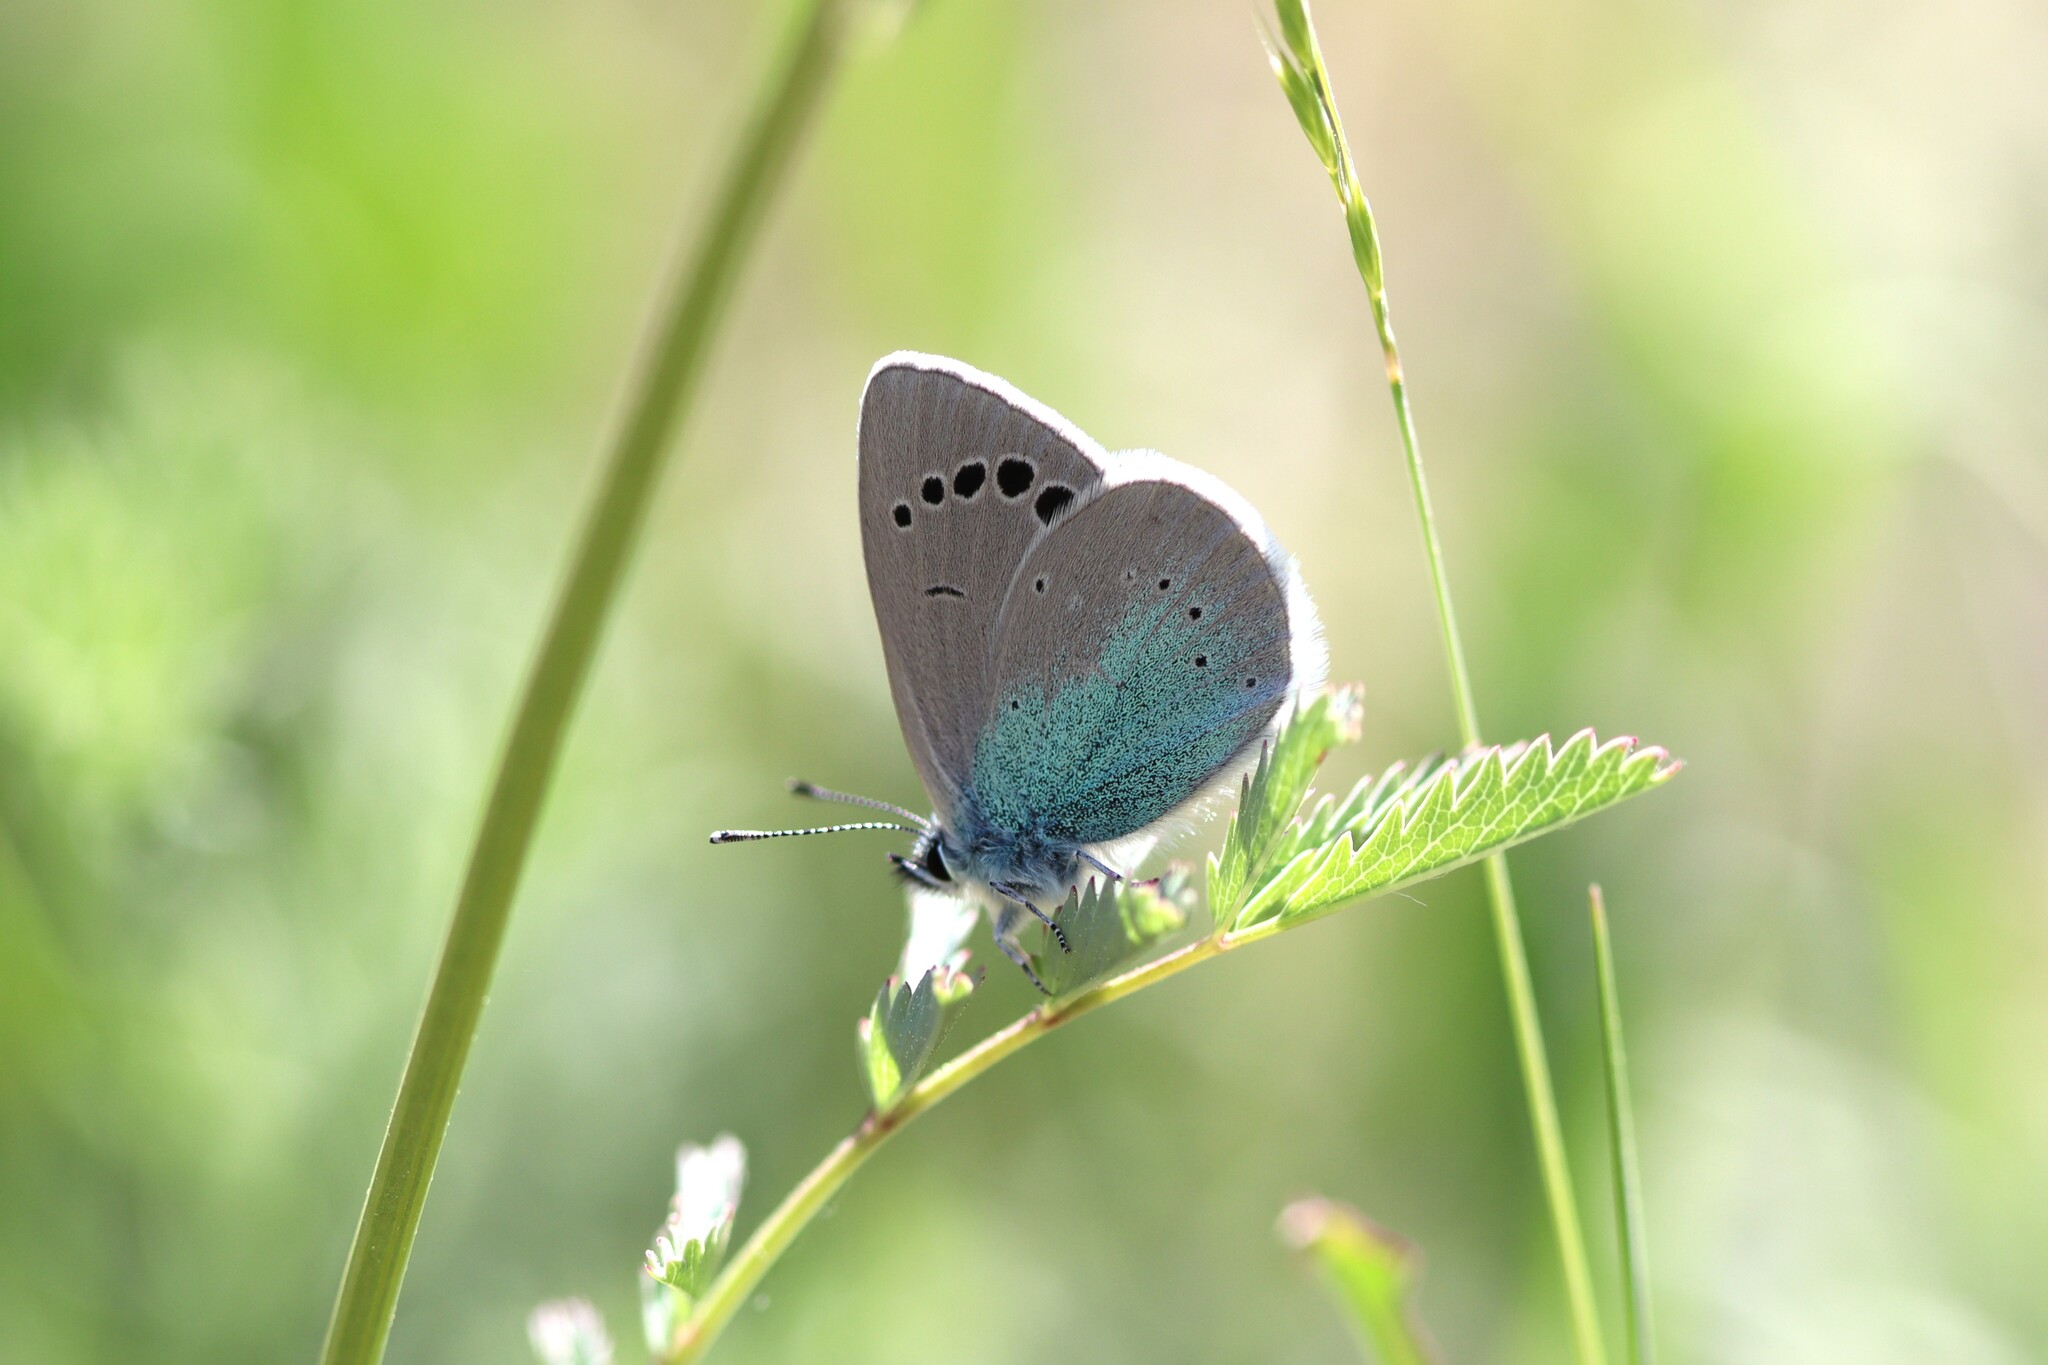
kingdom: Animalia
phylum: Arthropoda
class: Insecta
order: Lepidoptera
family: Lycaenidae
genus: Glaucopsyche
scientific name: Glaucopsyche alexis
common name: Green-underside blue
